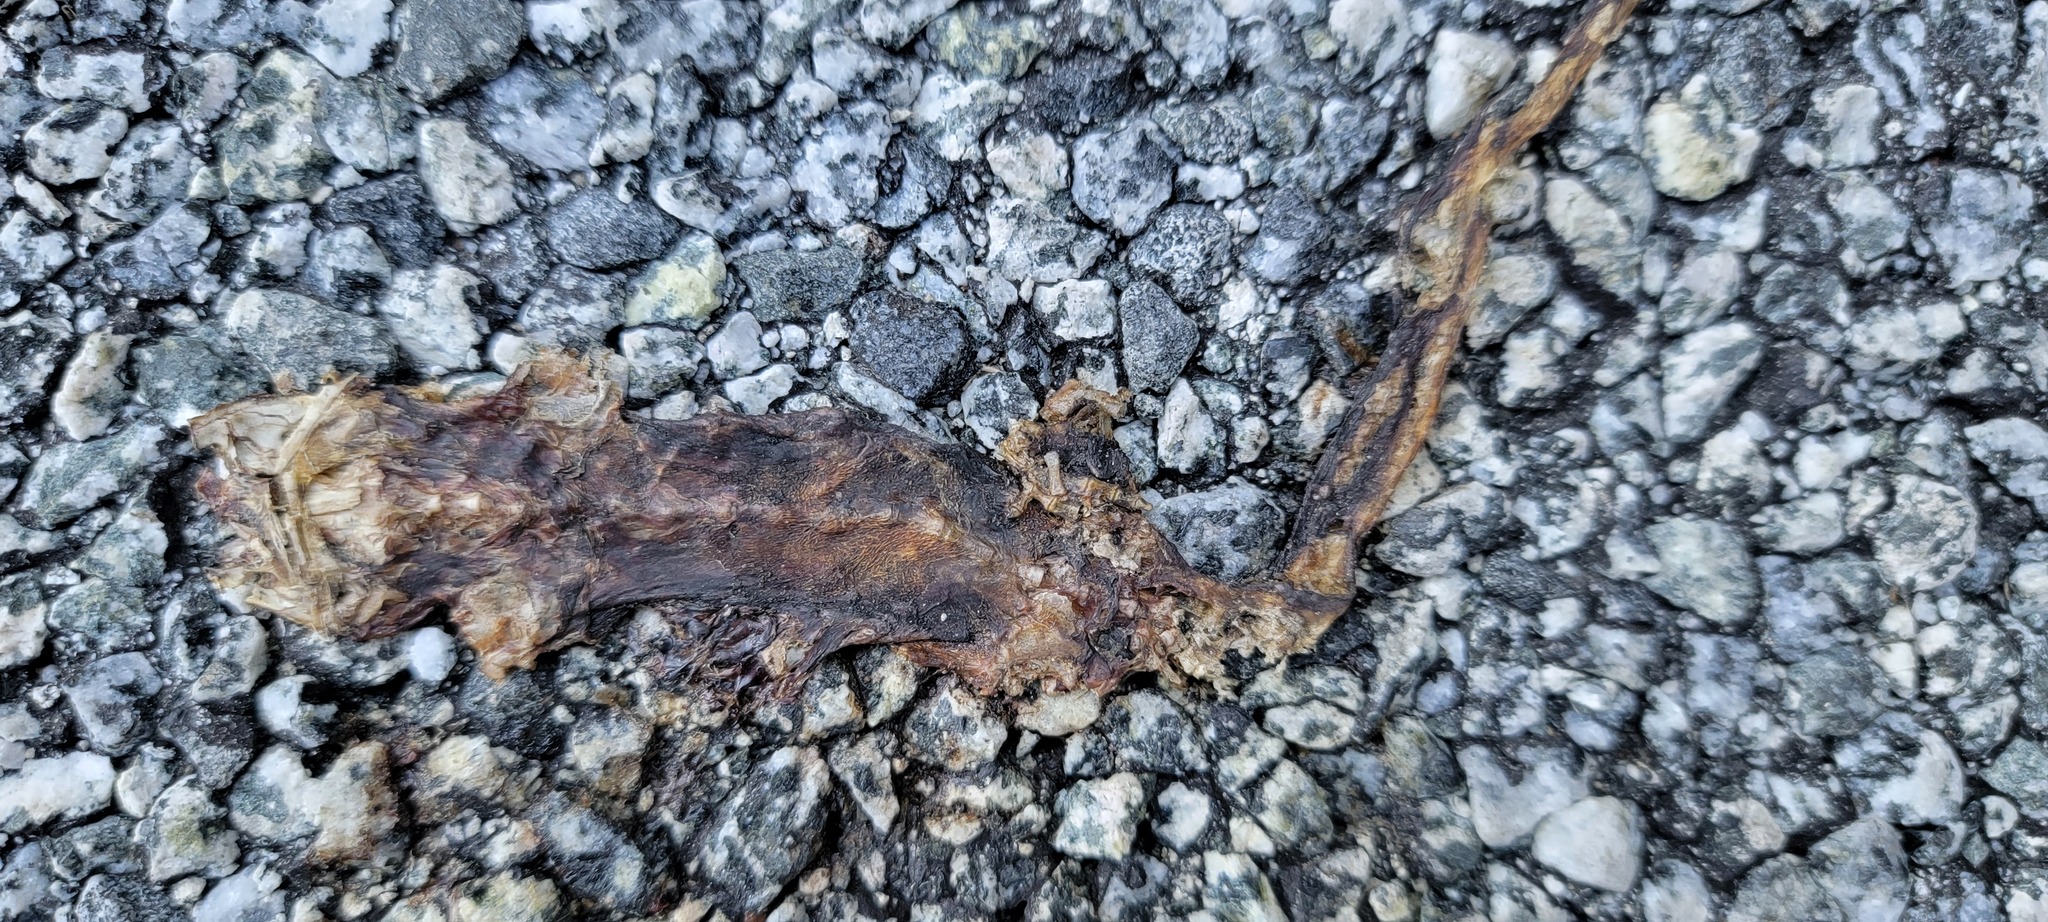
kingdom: Animalia
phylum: Chordata
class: Amphibia
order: Caudata
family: Salamandridae
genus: Taricha
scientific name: Taricha
